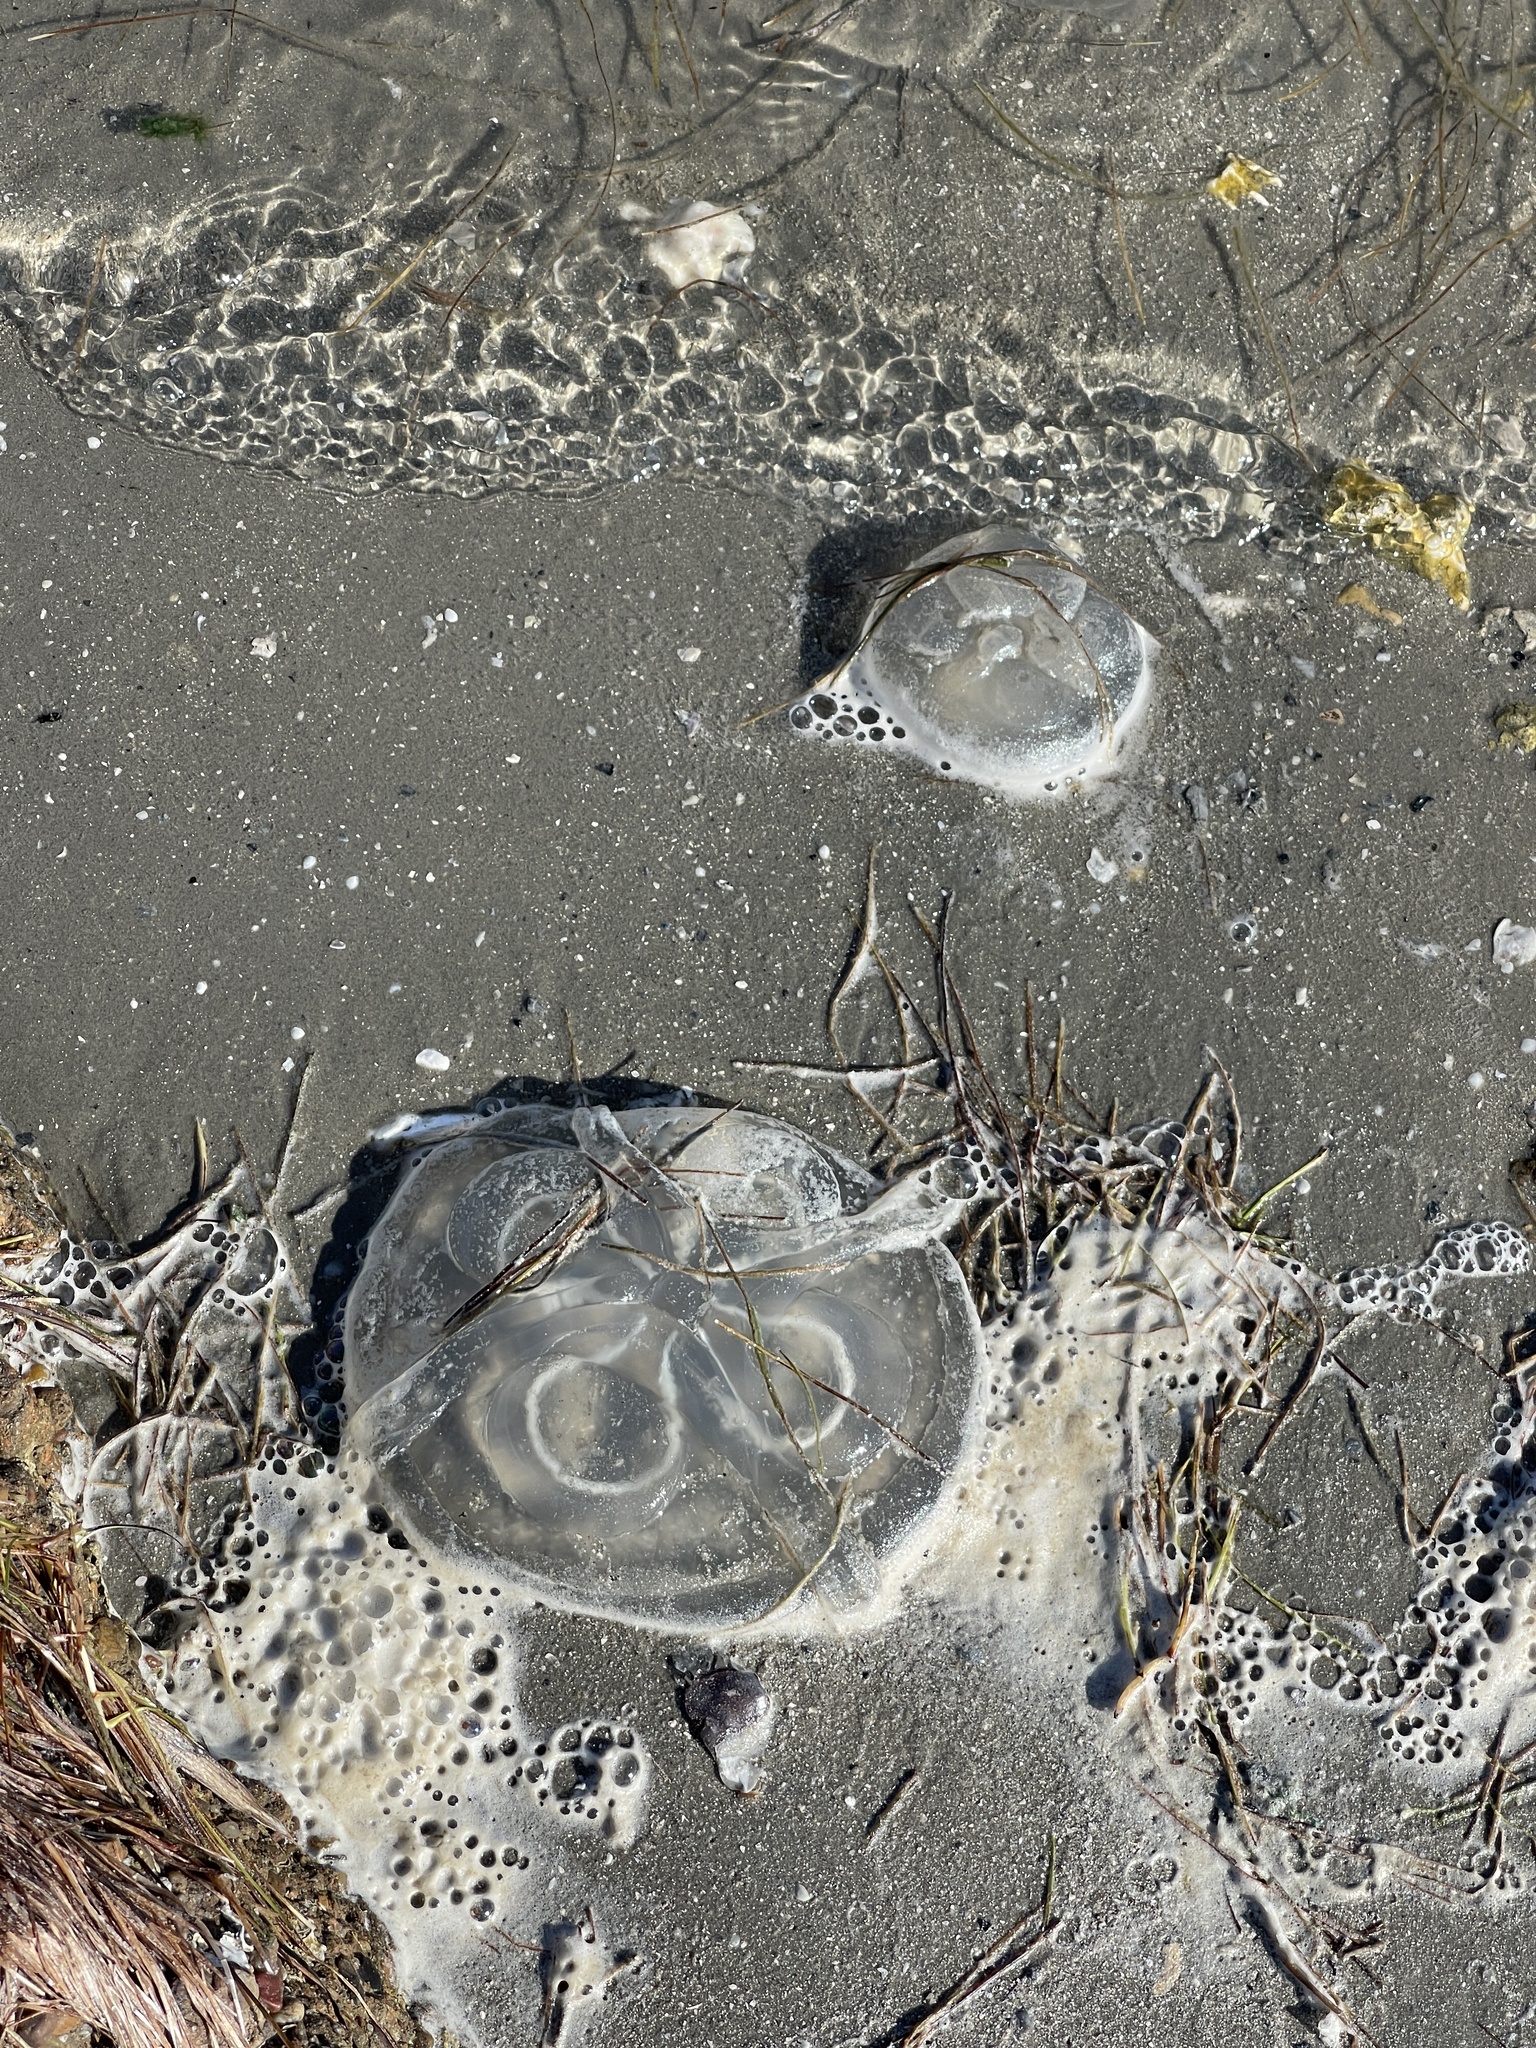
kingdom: Animalia
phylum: Cnidaria
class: Scyphozoa
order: Semaeostomeae
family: Ulmaridae
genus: Aurelia
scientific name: Aurelia marginalis
